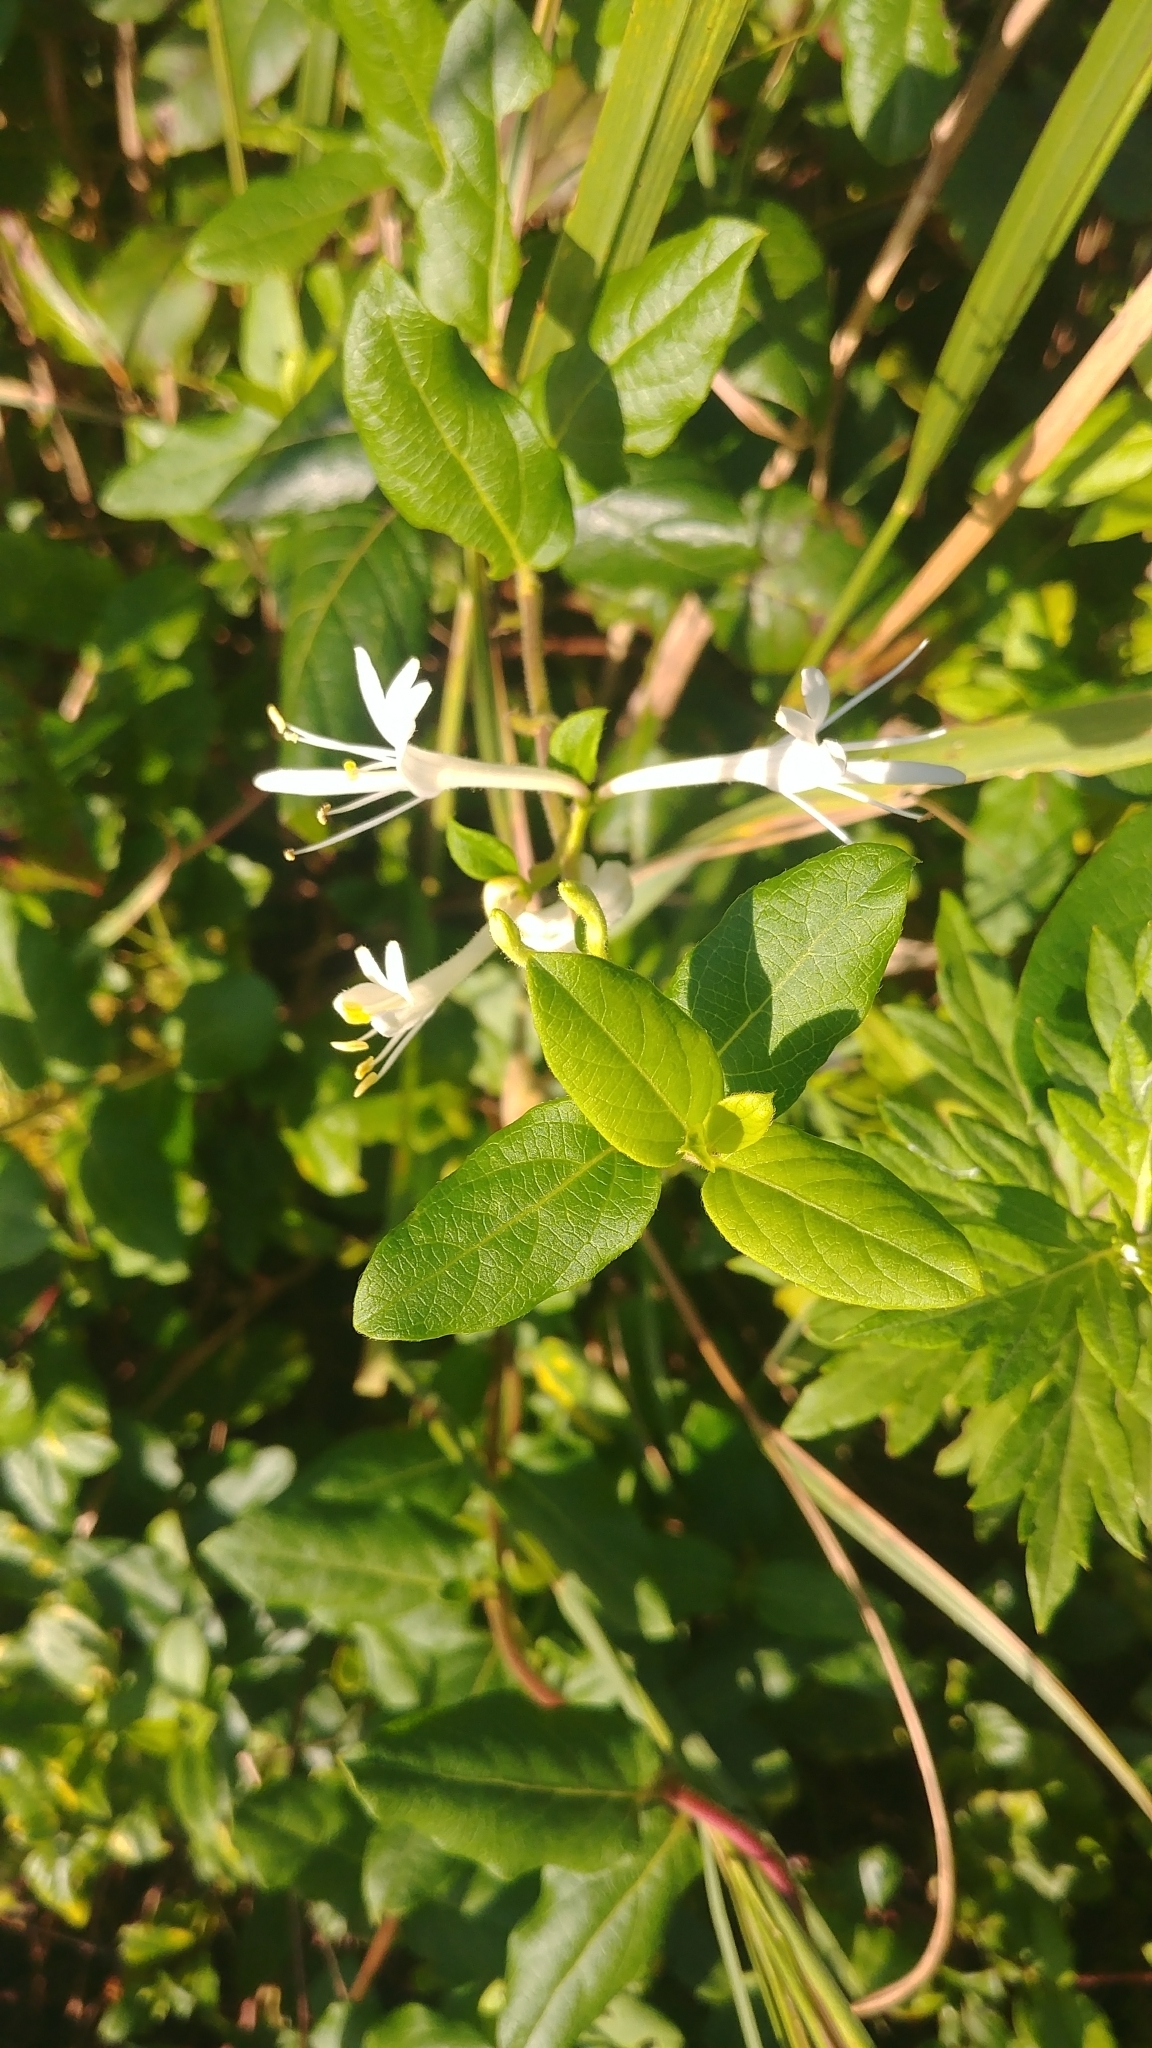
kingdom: Plantae
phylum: Tracheophyta
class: Magnoliopsida
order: Dipsacales
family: Caprifoliaceae
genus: Lonicera
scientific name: Lonicera japonica
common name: Japanese honeysuckle
